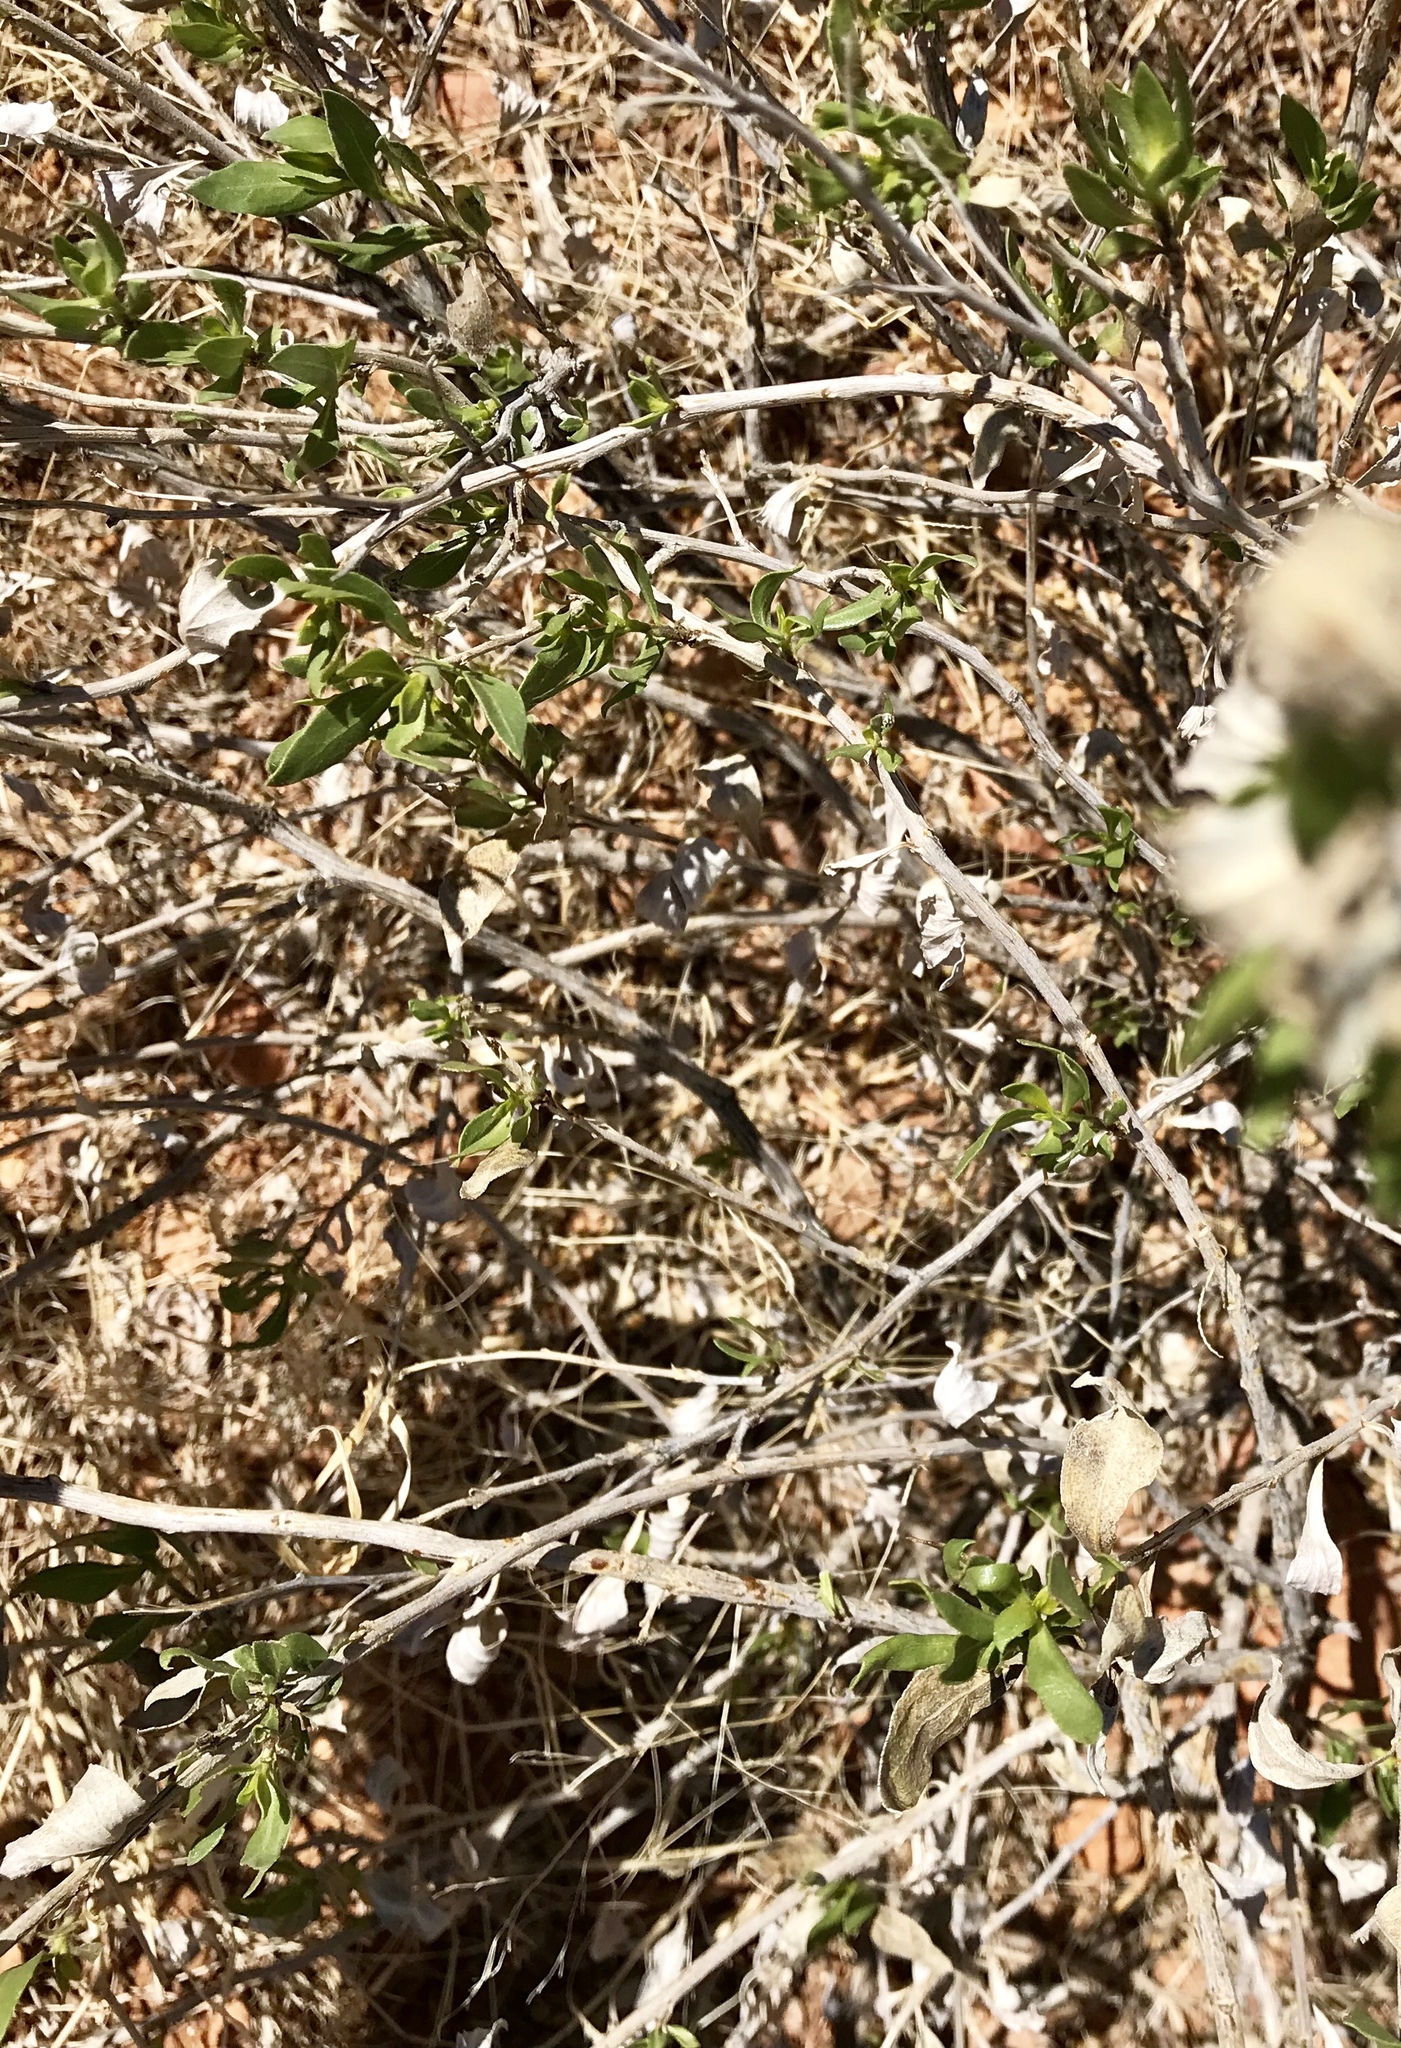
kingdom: Plantae
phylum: Tracheophyta
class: Magnoliopsida
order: Asterales
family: Asteraceae
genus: Flourensia
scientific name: Flourensia cernua
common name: Varnishbush
